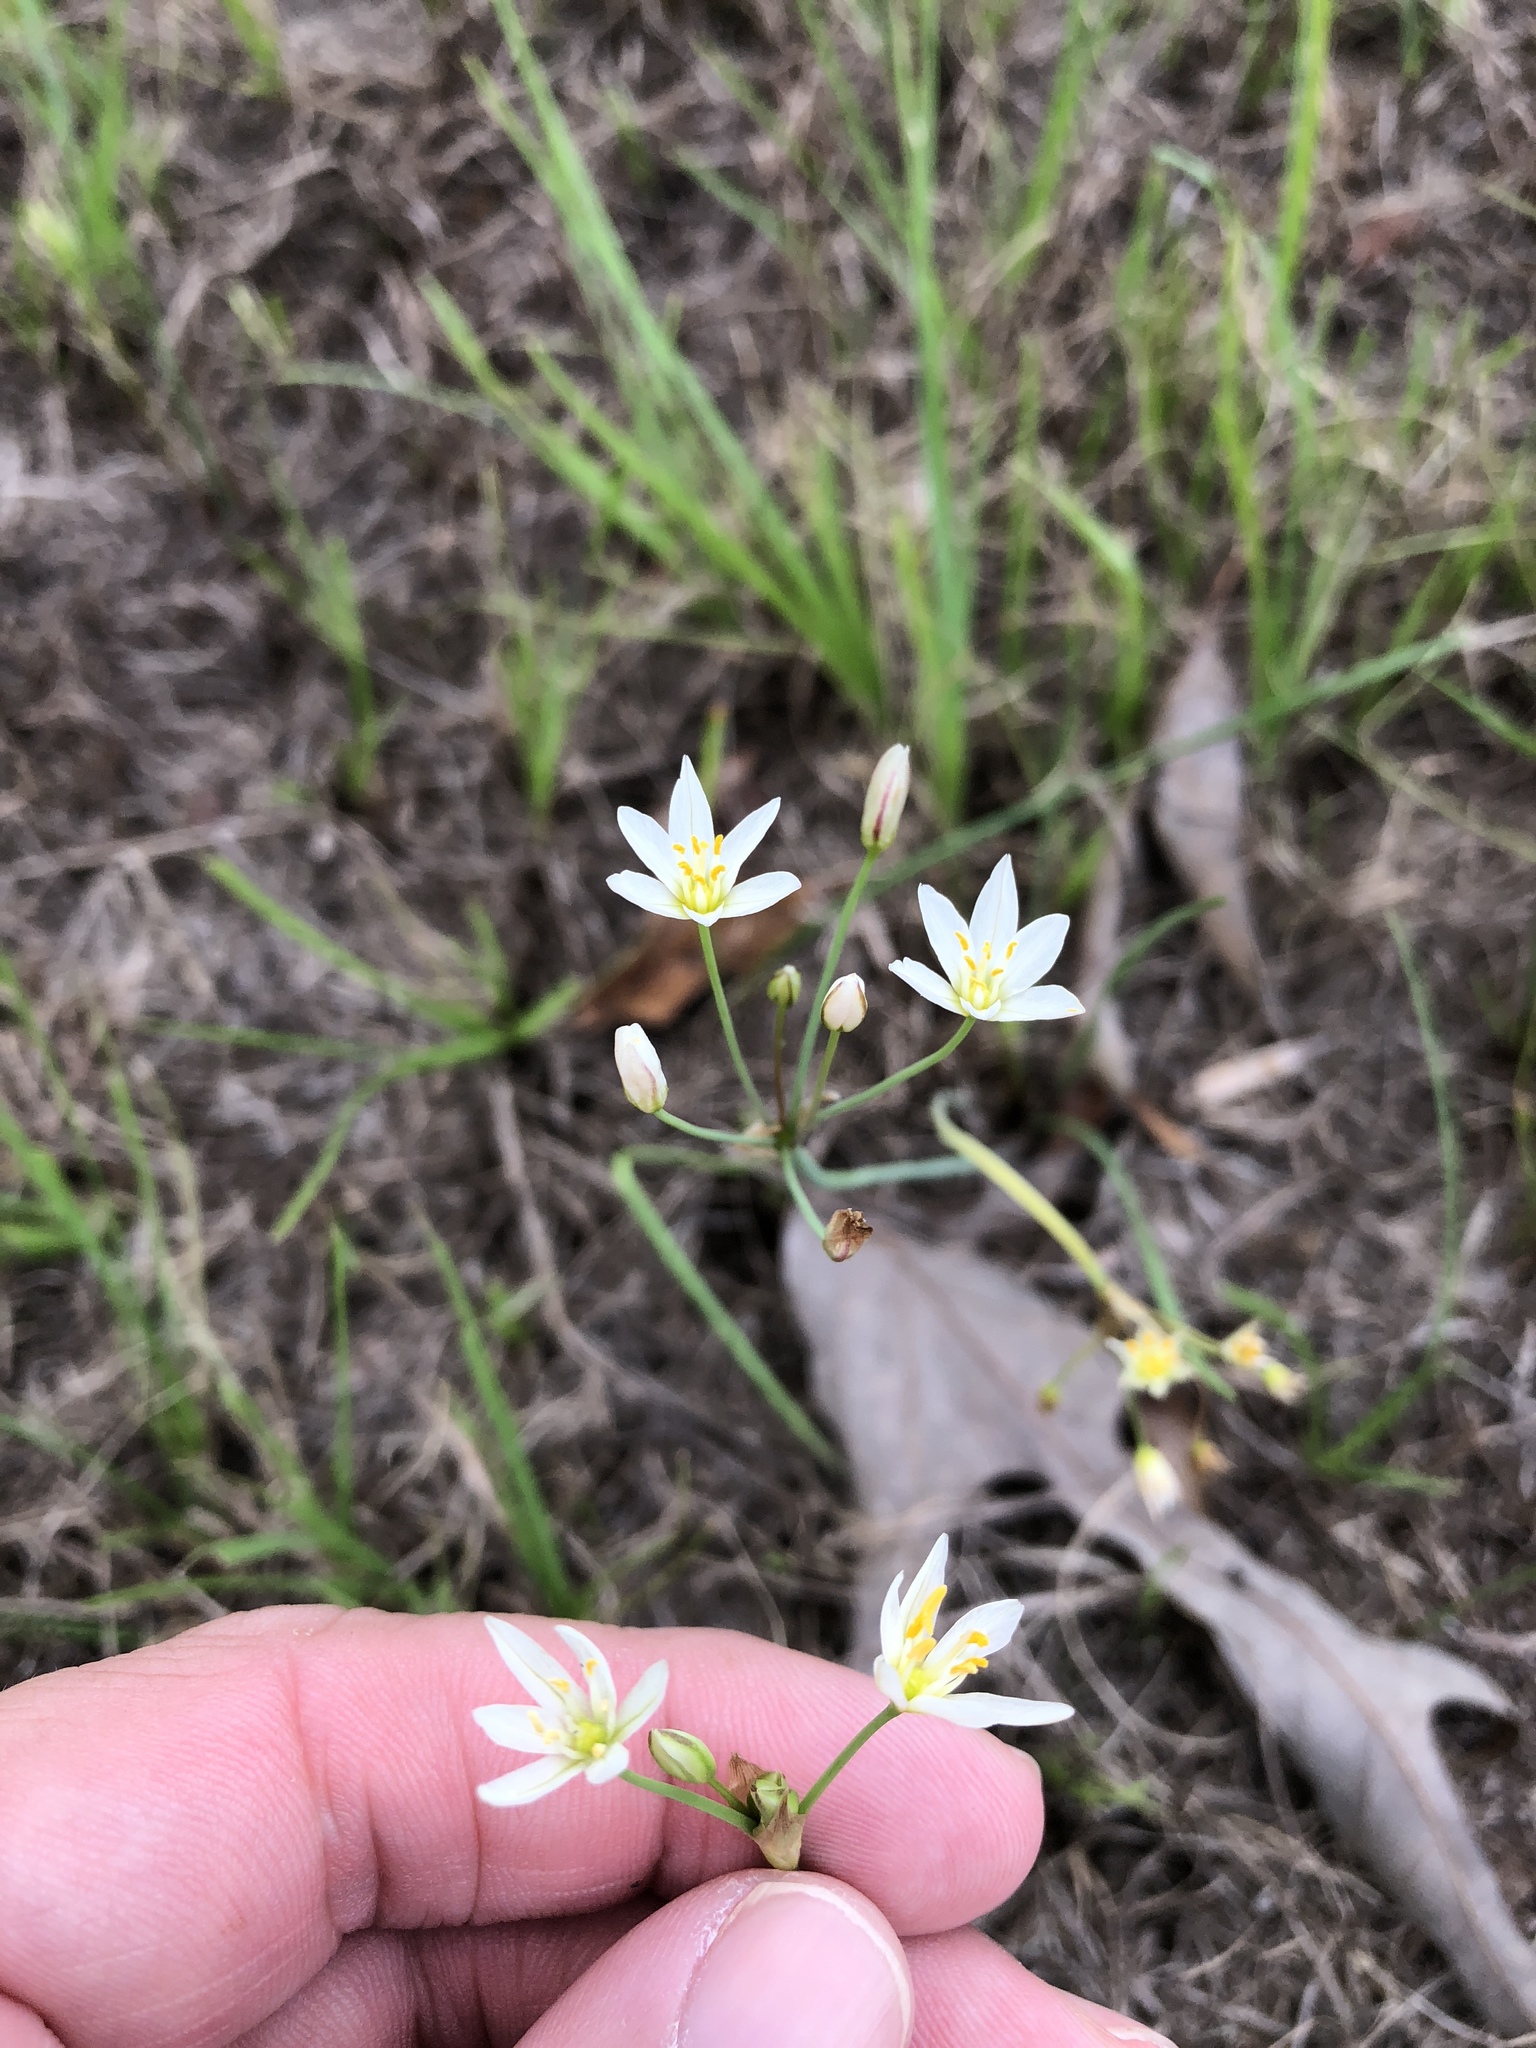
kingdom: Plantae
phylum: Tracheophyta
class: Liliopsida
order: Asparagales
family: Amaryllidaceae
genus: Nothoscordum
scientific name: Nothoscordum bivalve
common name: Crow-poison
